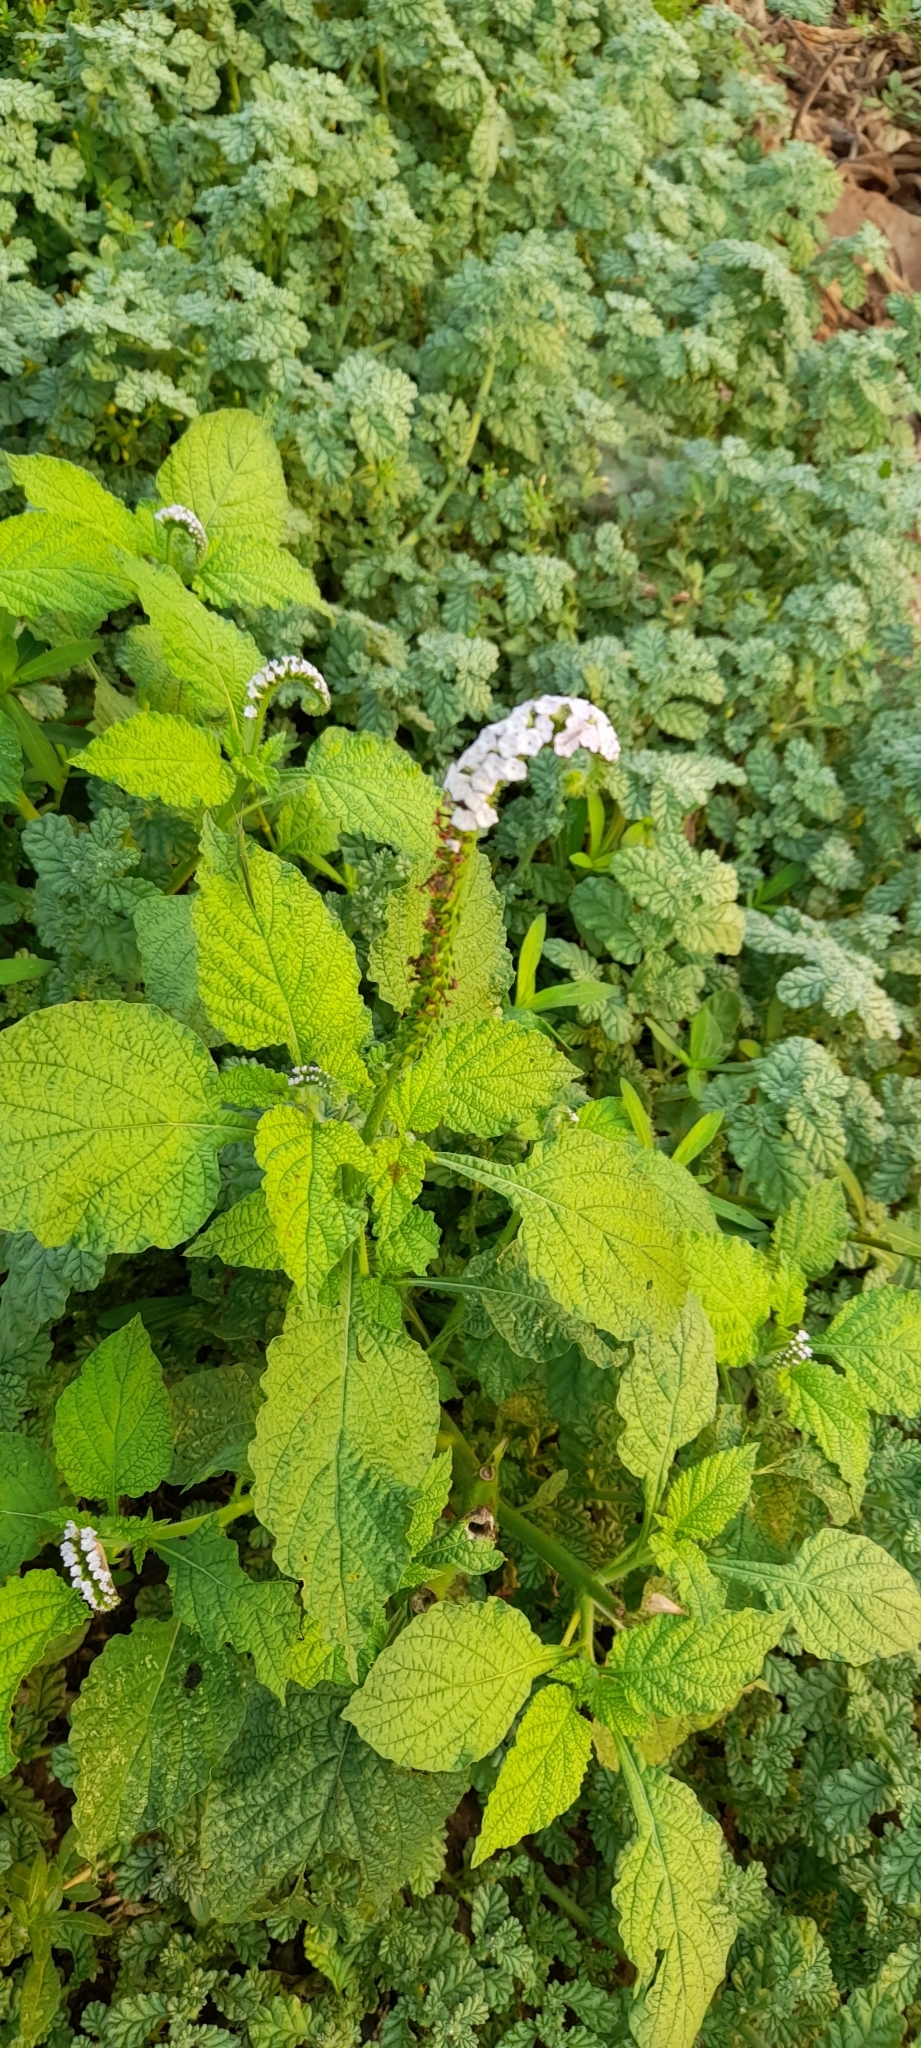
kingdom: Plantae
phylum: Tracheophyta
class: Magnoliopsida
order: Boraginales
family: Heliotropiaceae
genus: Heliotropium
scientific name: Heliotropium indicum
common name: Indian heliotrope
